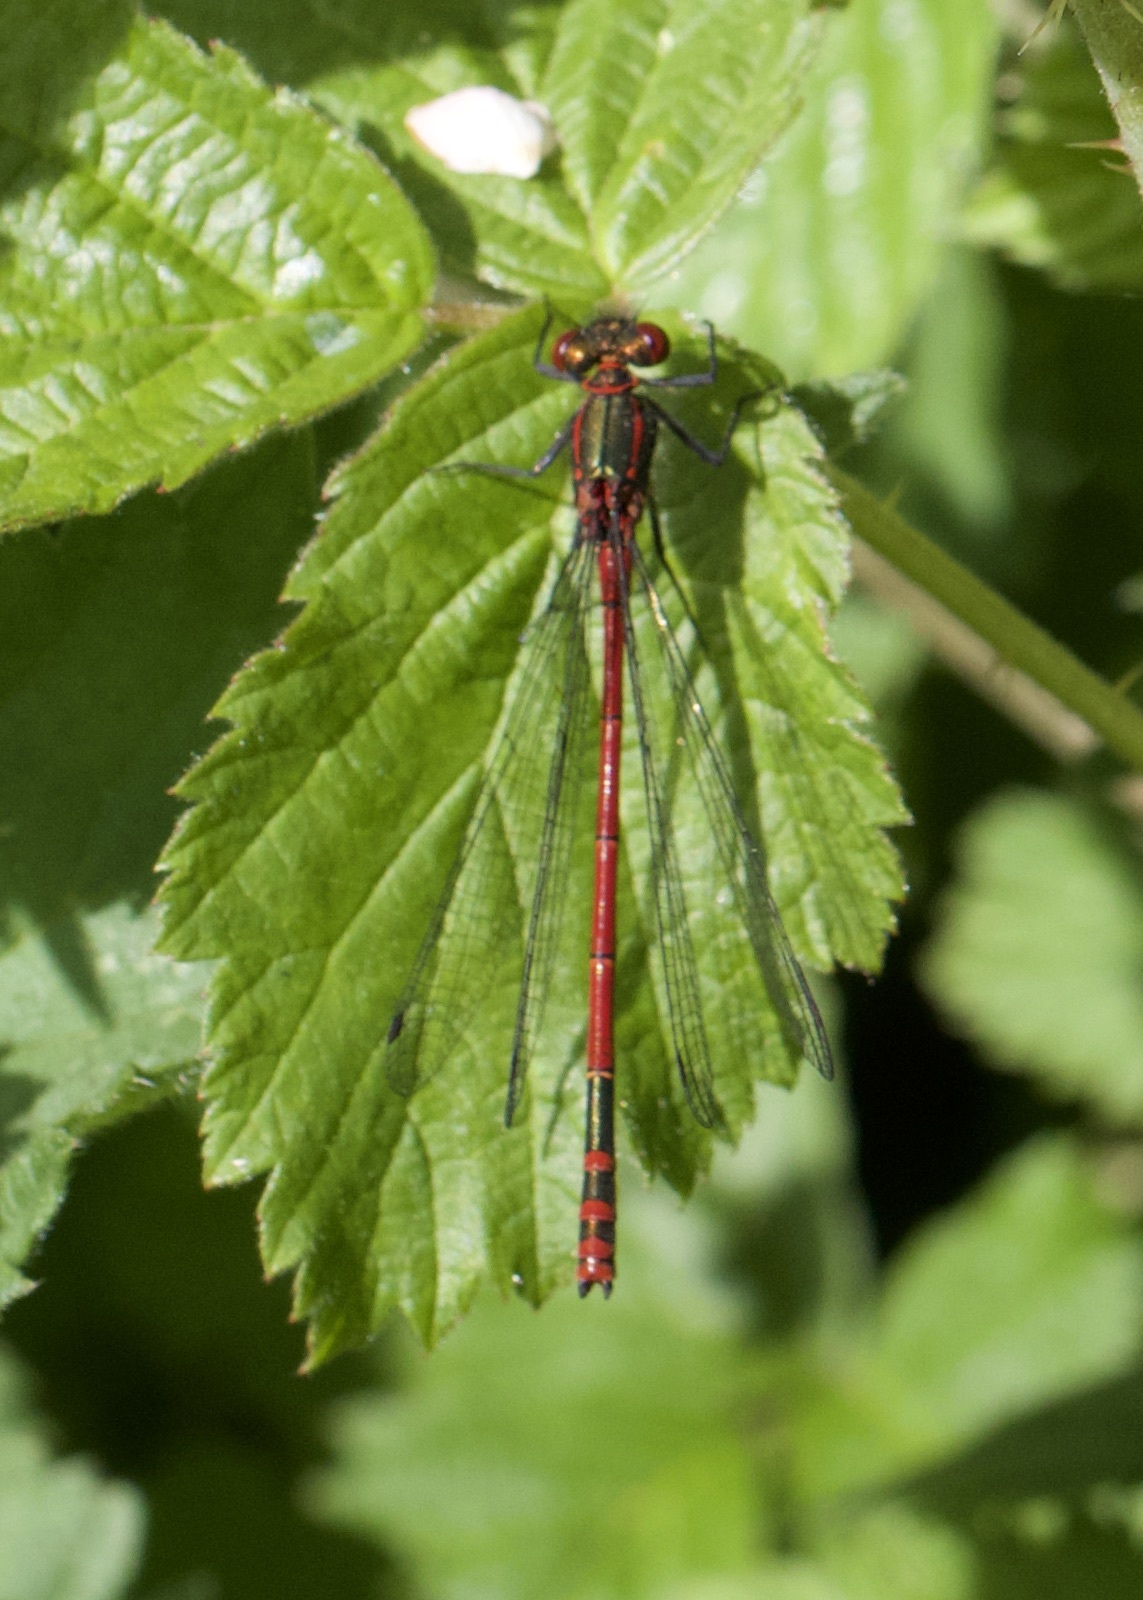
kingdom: Animalia
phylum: Arthropoda
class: Insecta
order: Odonata
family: Coenagrionidae
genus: Pyrrhosoma
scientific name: Pyrrhosoma nymphula
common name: Large red damsel
